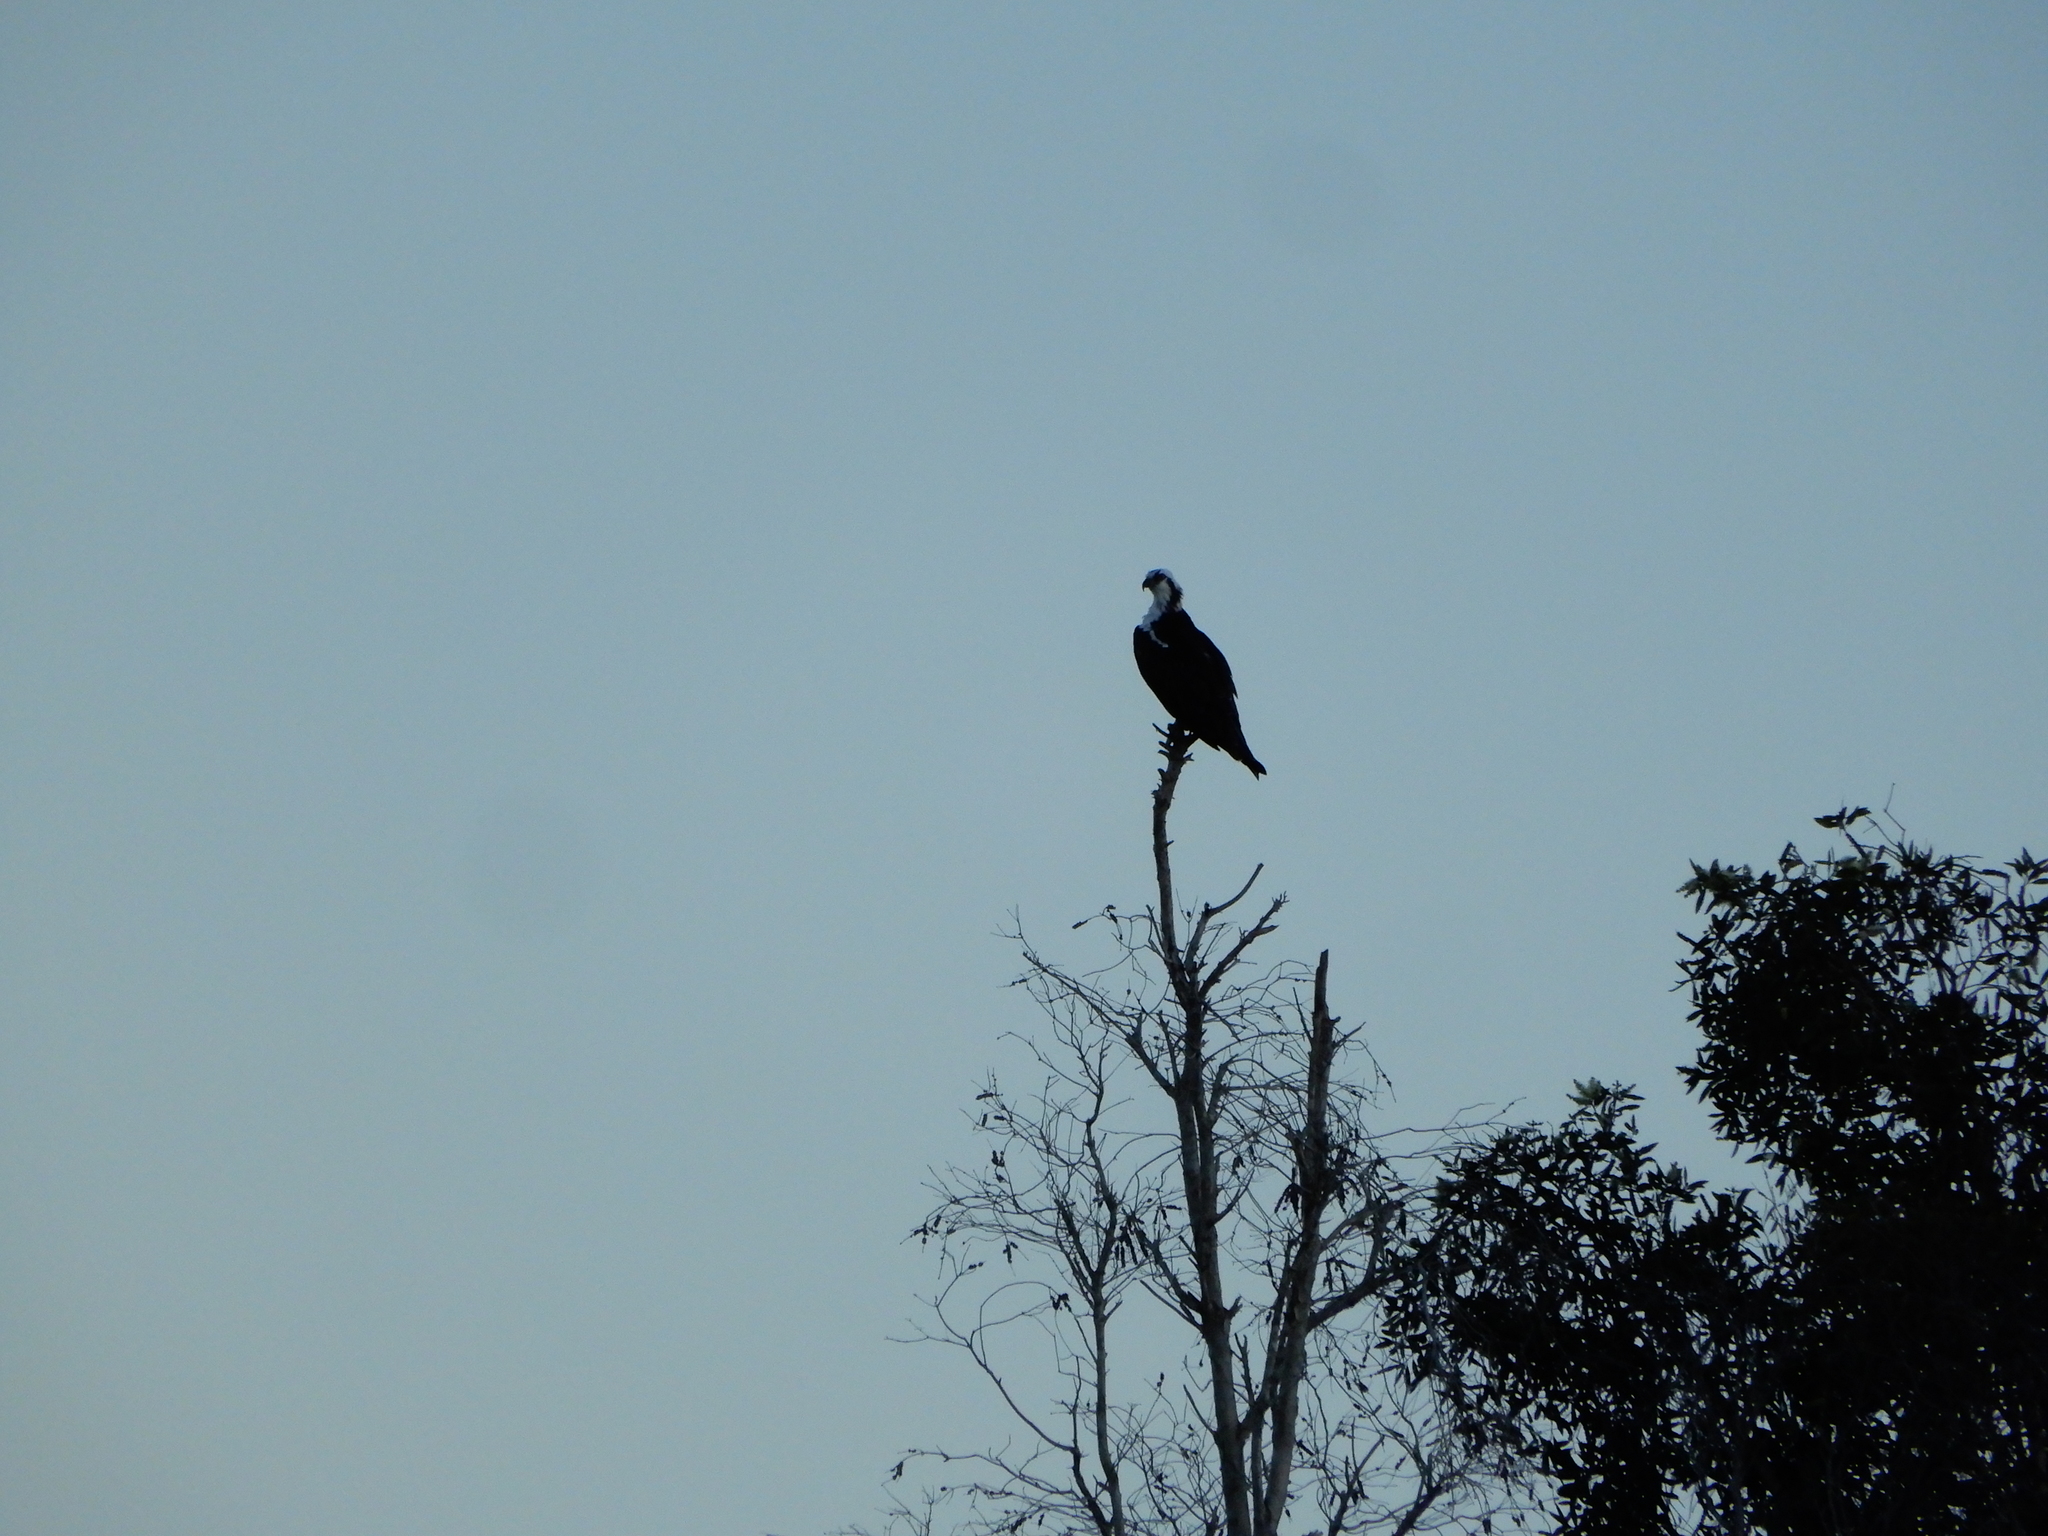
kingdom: Animalia
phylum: Chordata
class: Aves
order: Accipitriformes
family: Pandionidae
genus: Pandion
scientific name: Pandion haliaetus
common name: Osprey
